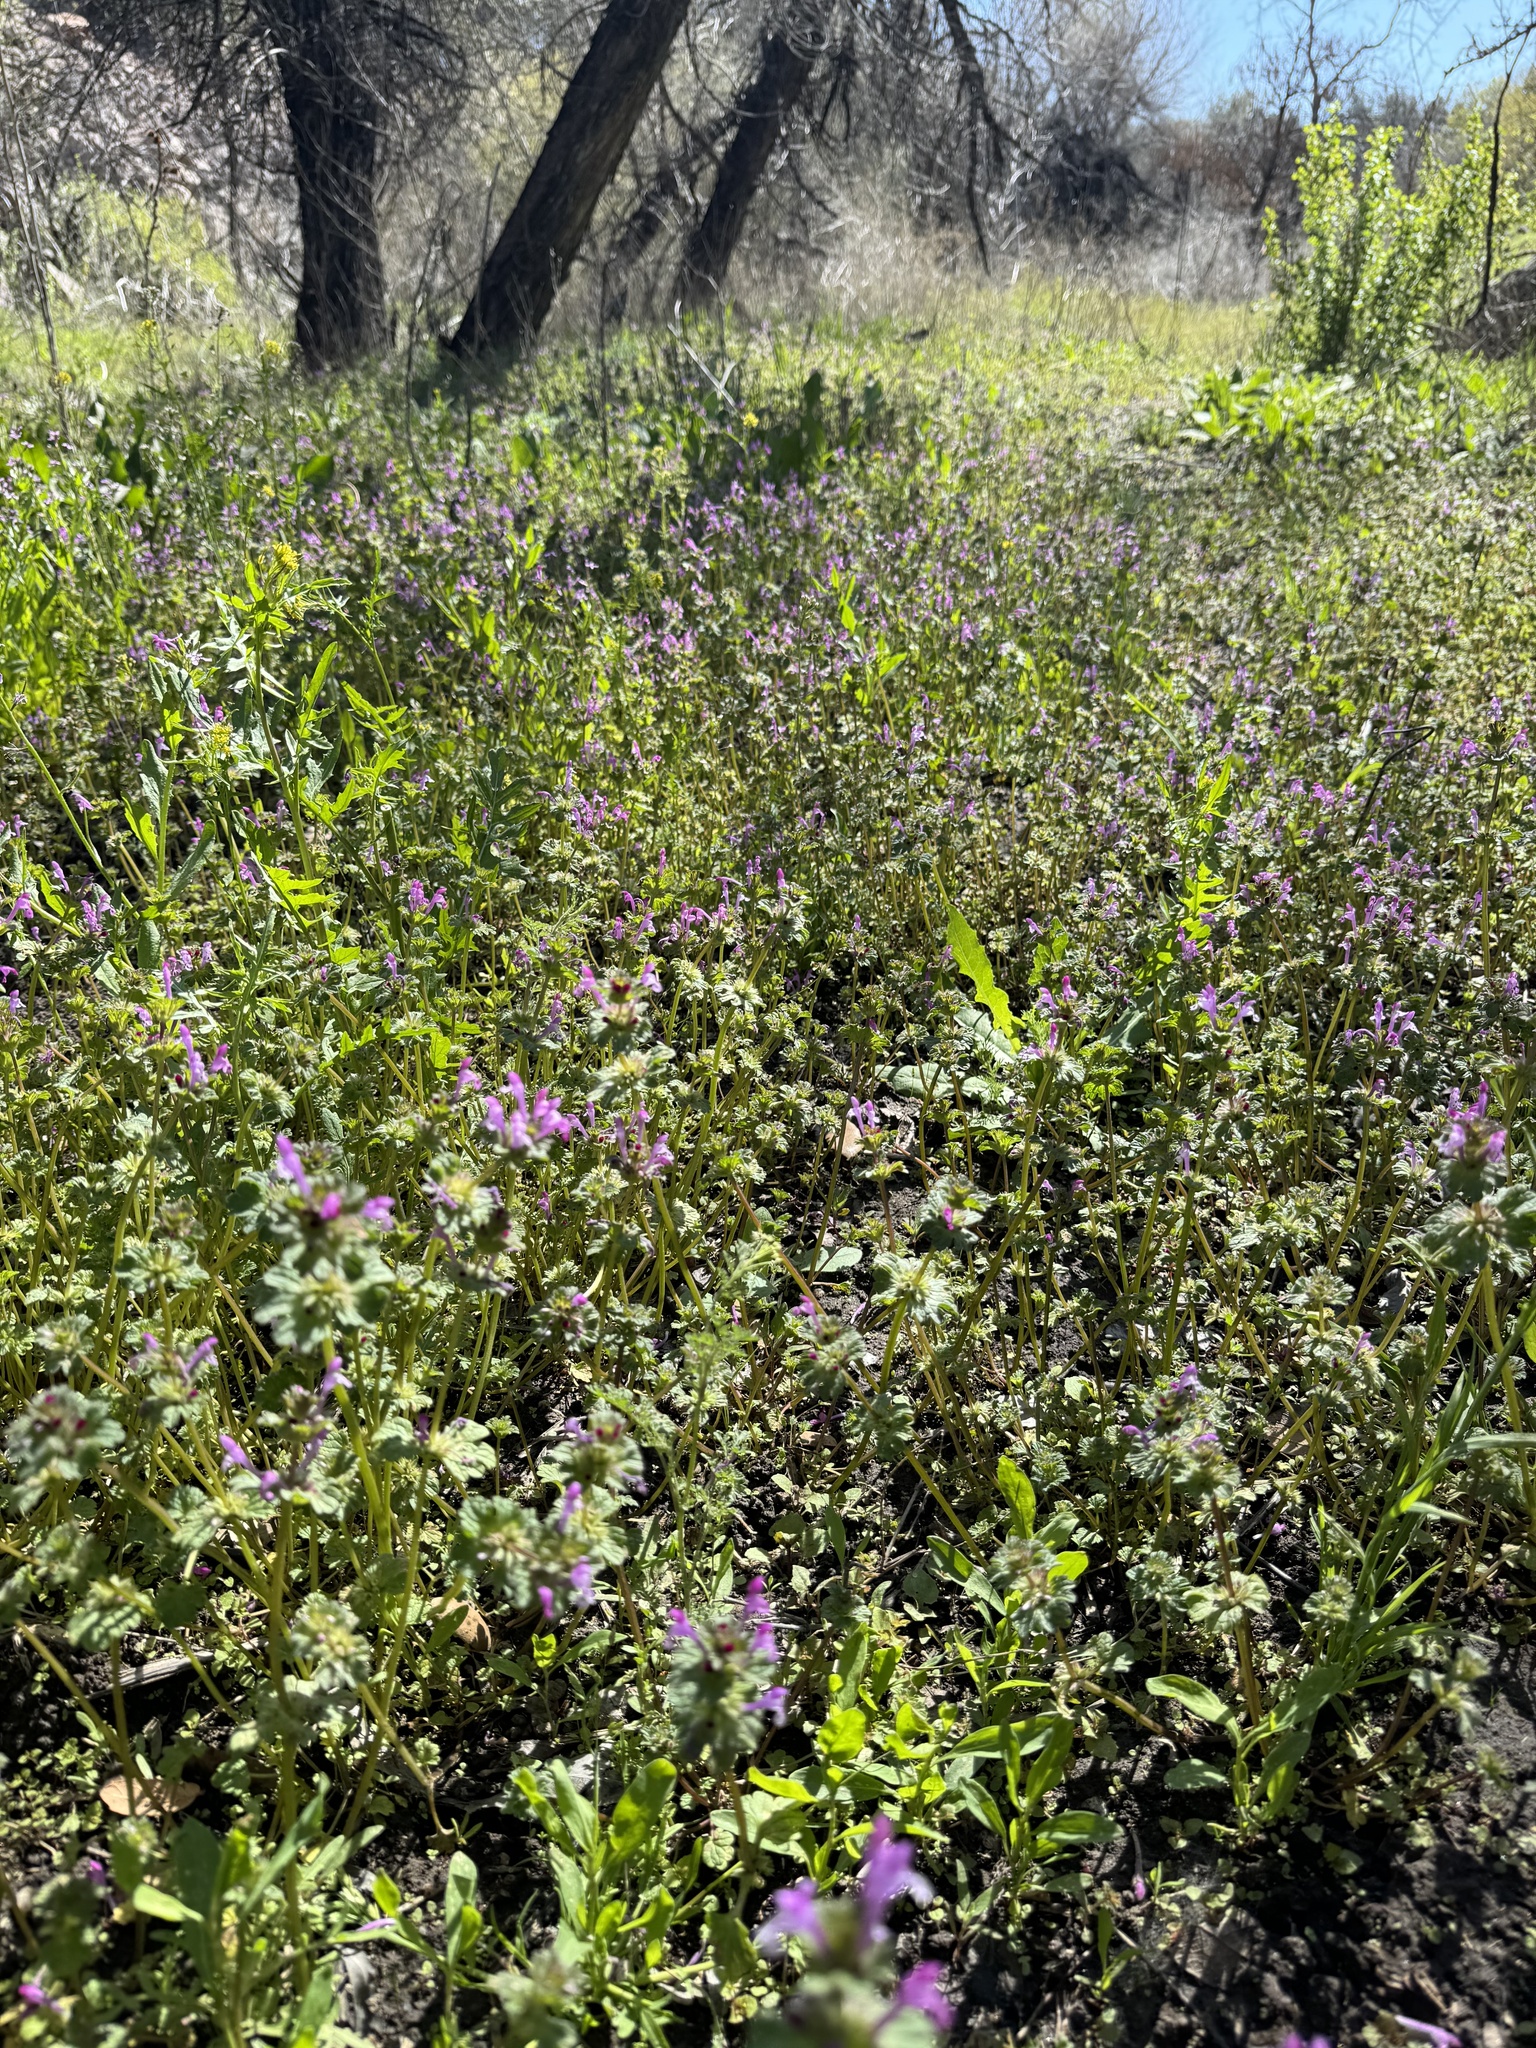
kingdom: Plantae
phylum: Tracheophyta
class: Magnoliopsida
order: Lamiales
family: Lamiaceae
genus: Lamium
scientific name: Lamium amplexicaule
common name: Henbit dead-nettle
